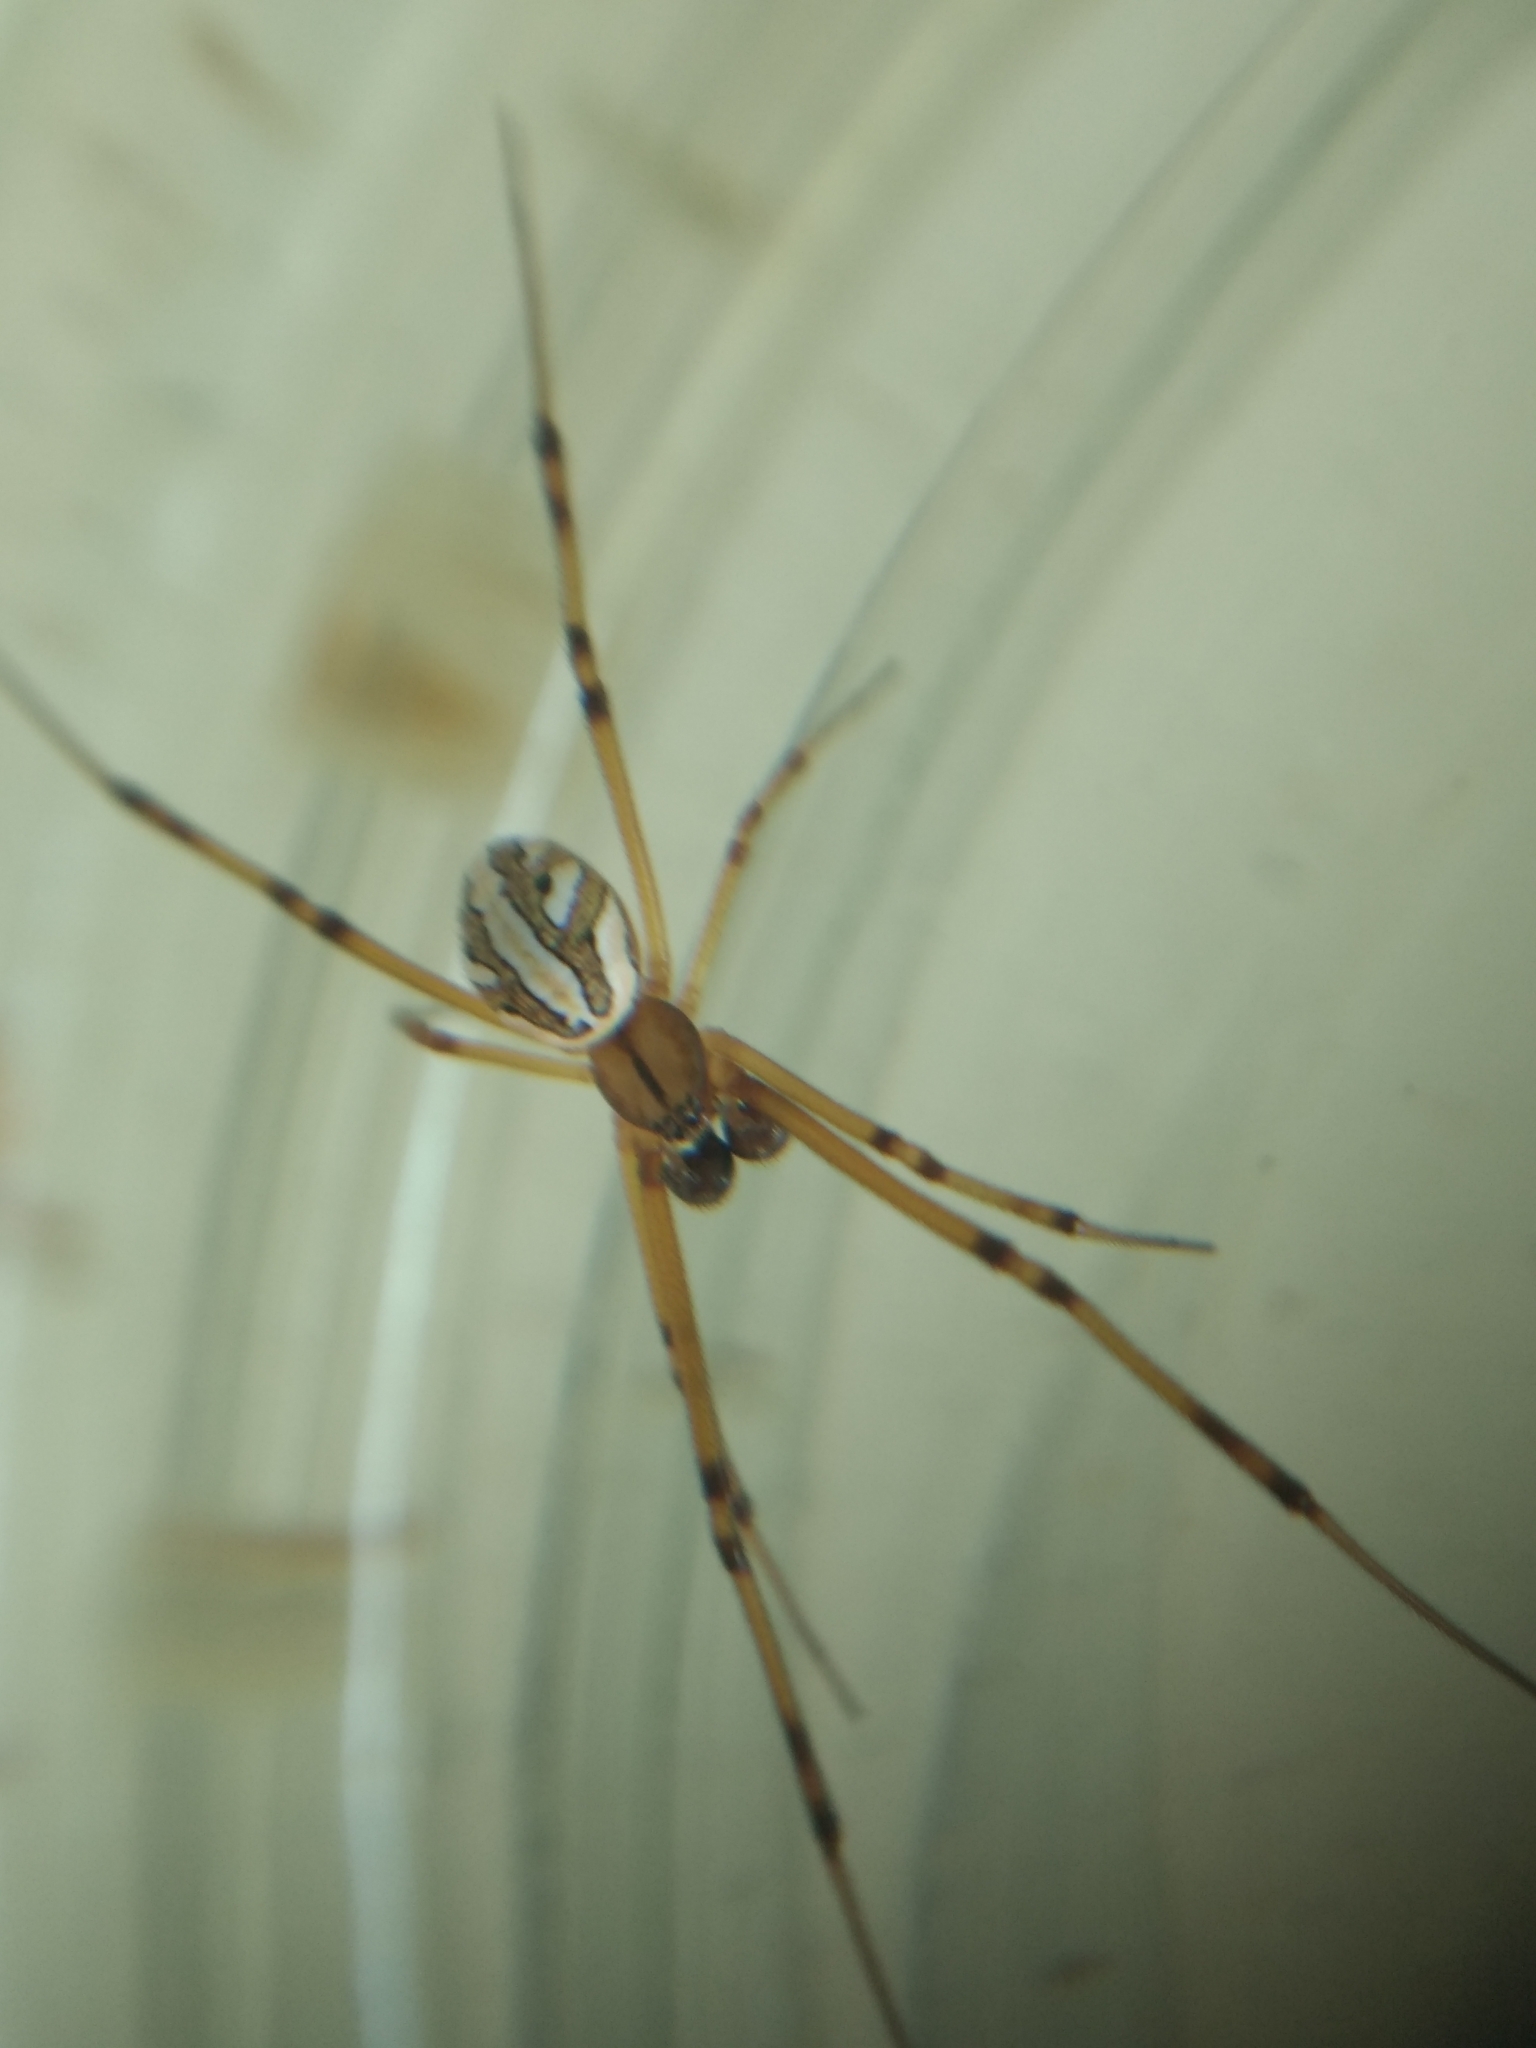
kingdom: Animalia
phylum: Arthropoda
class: Arachnida
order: Araneae
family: Theridiidae
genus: Latrodectus
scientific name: Latrodectus hesperus
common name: Western black widow
